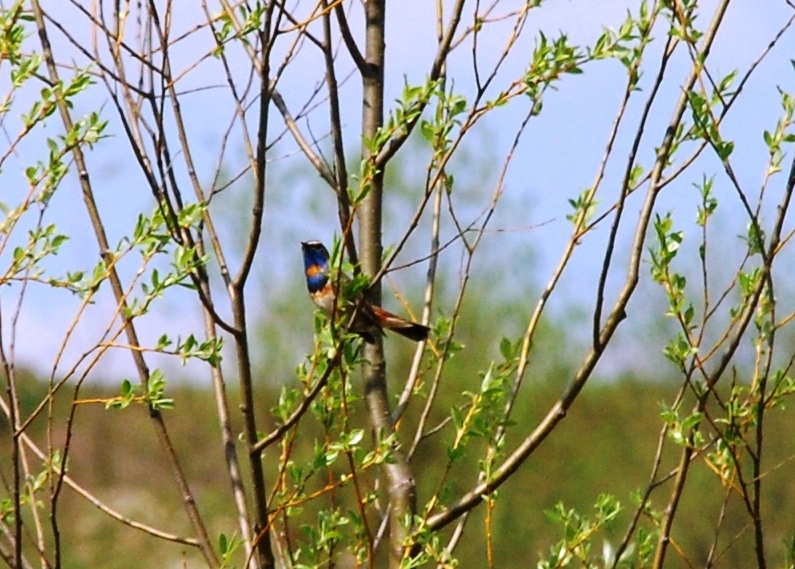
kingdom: Animalia
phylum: Chordata
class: Aves
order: Passeriformes
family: Muscicapidae
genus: Luscinia
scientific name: Luscinia svecica
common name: Bluethroat
